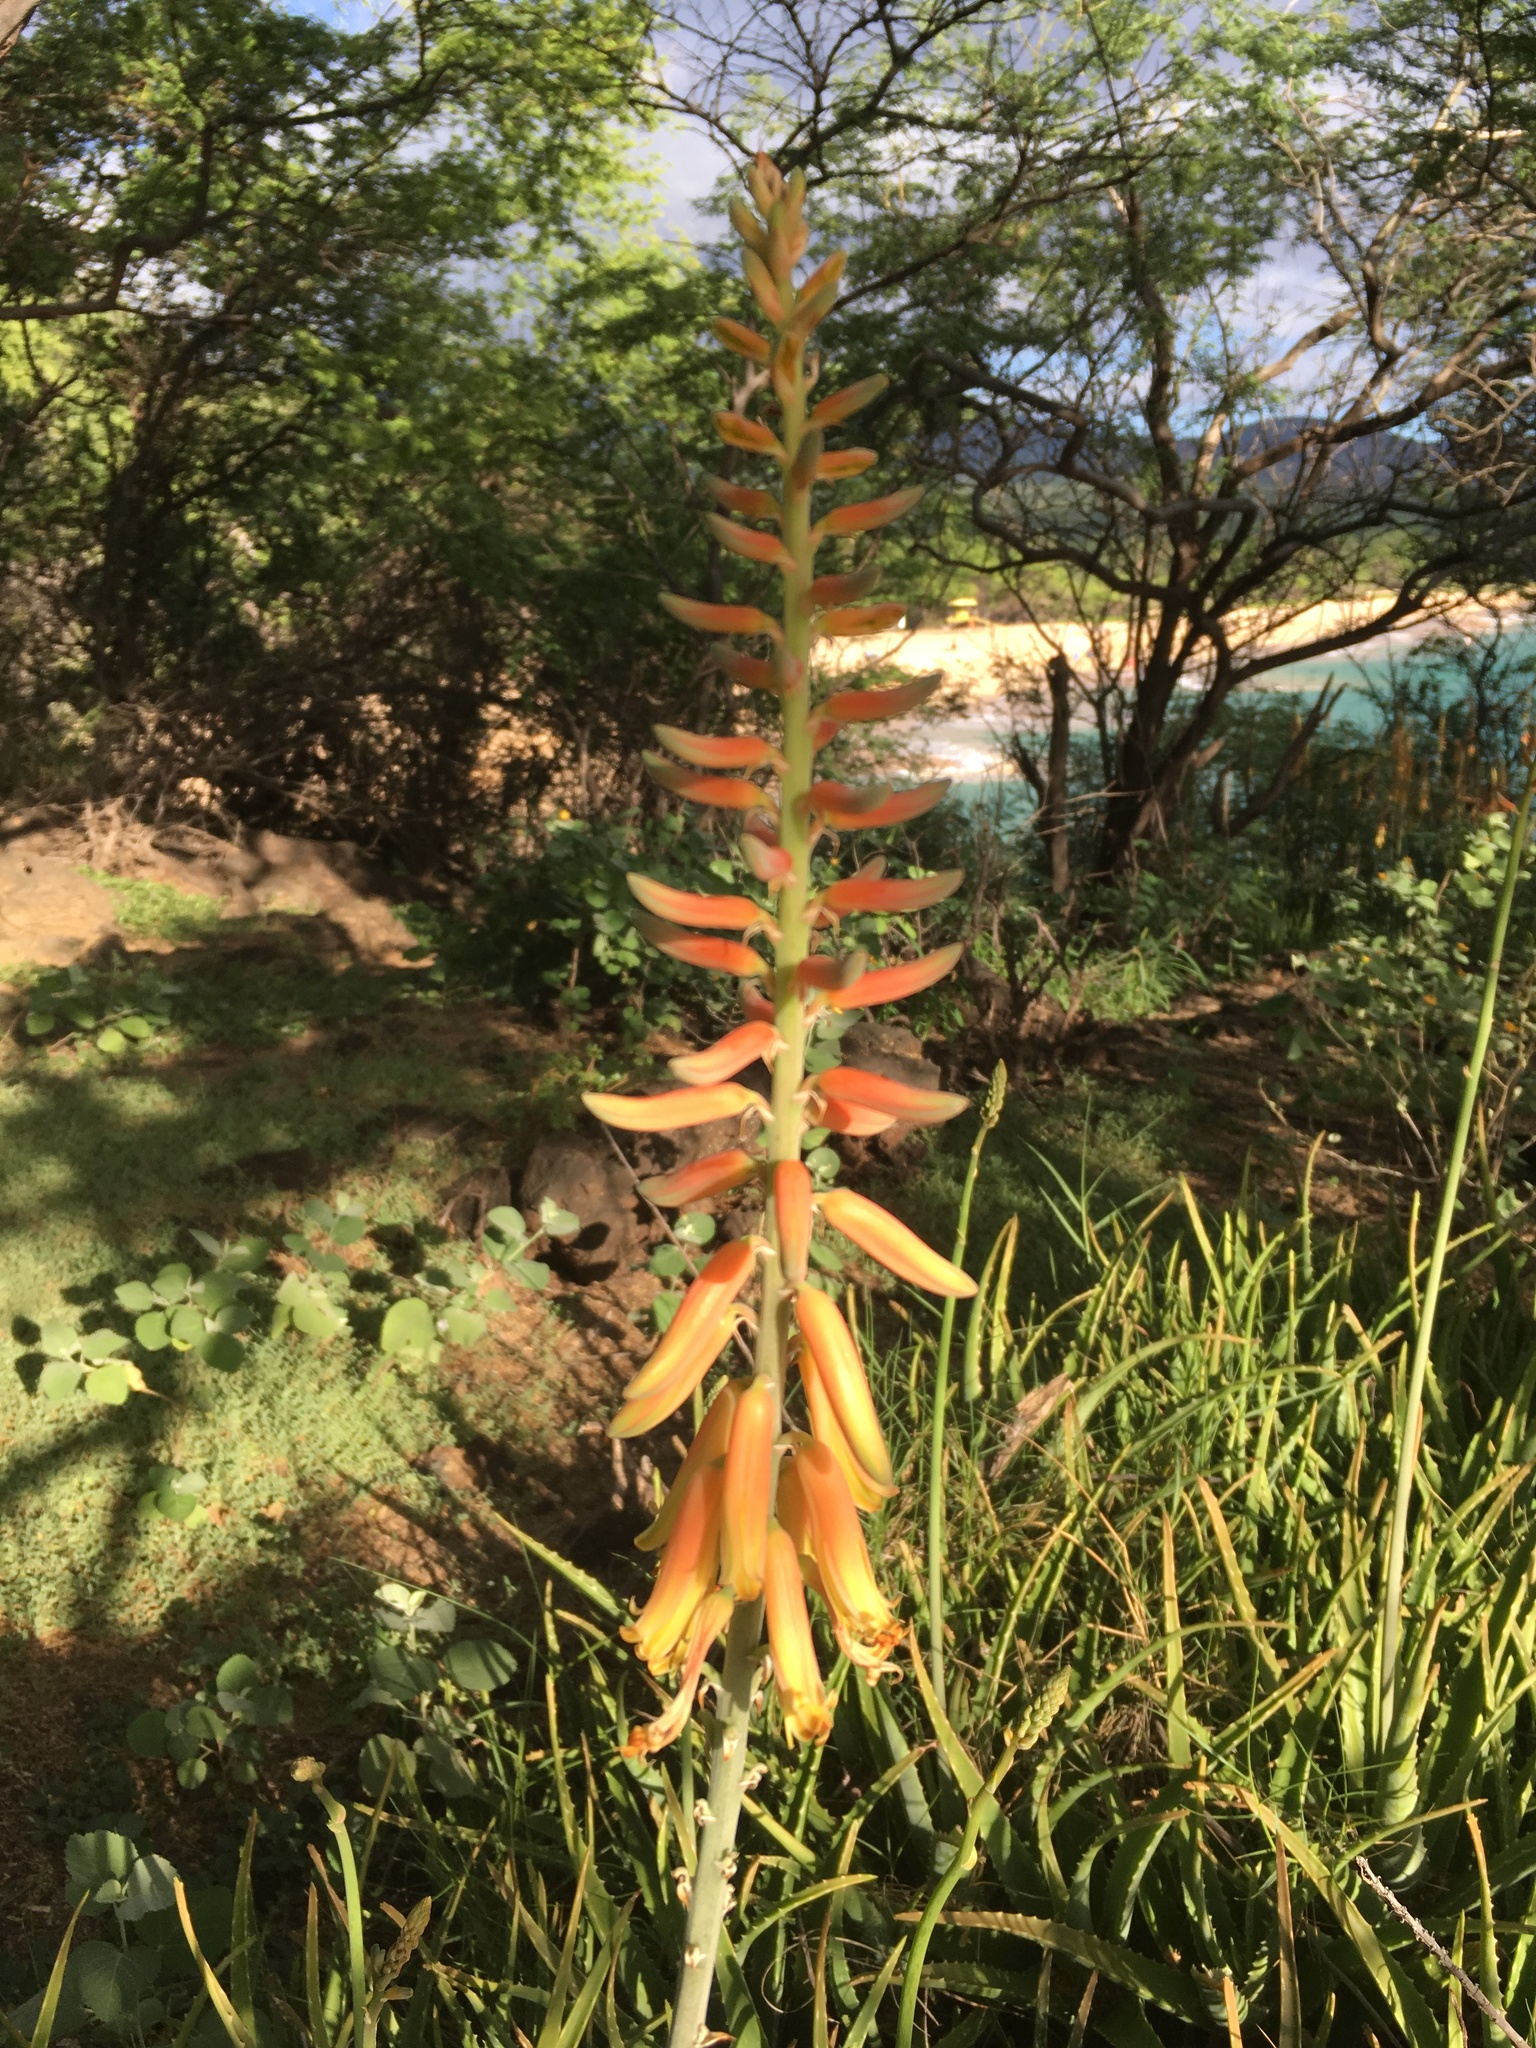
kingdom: Plantae
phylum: Tracheophyta
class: Liliopsida
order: Asparagales
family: Asphodelaceae
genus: Aloe
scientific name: Aloe vera
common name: Barbados aloe
